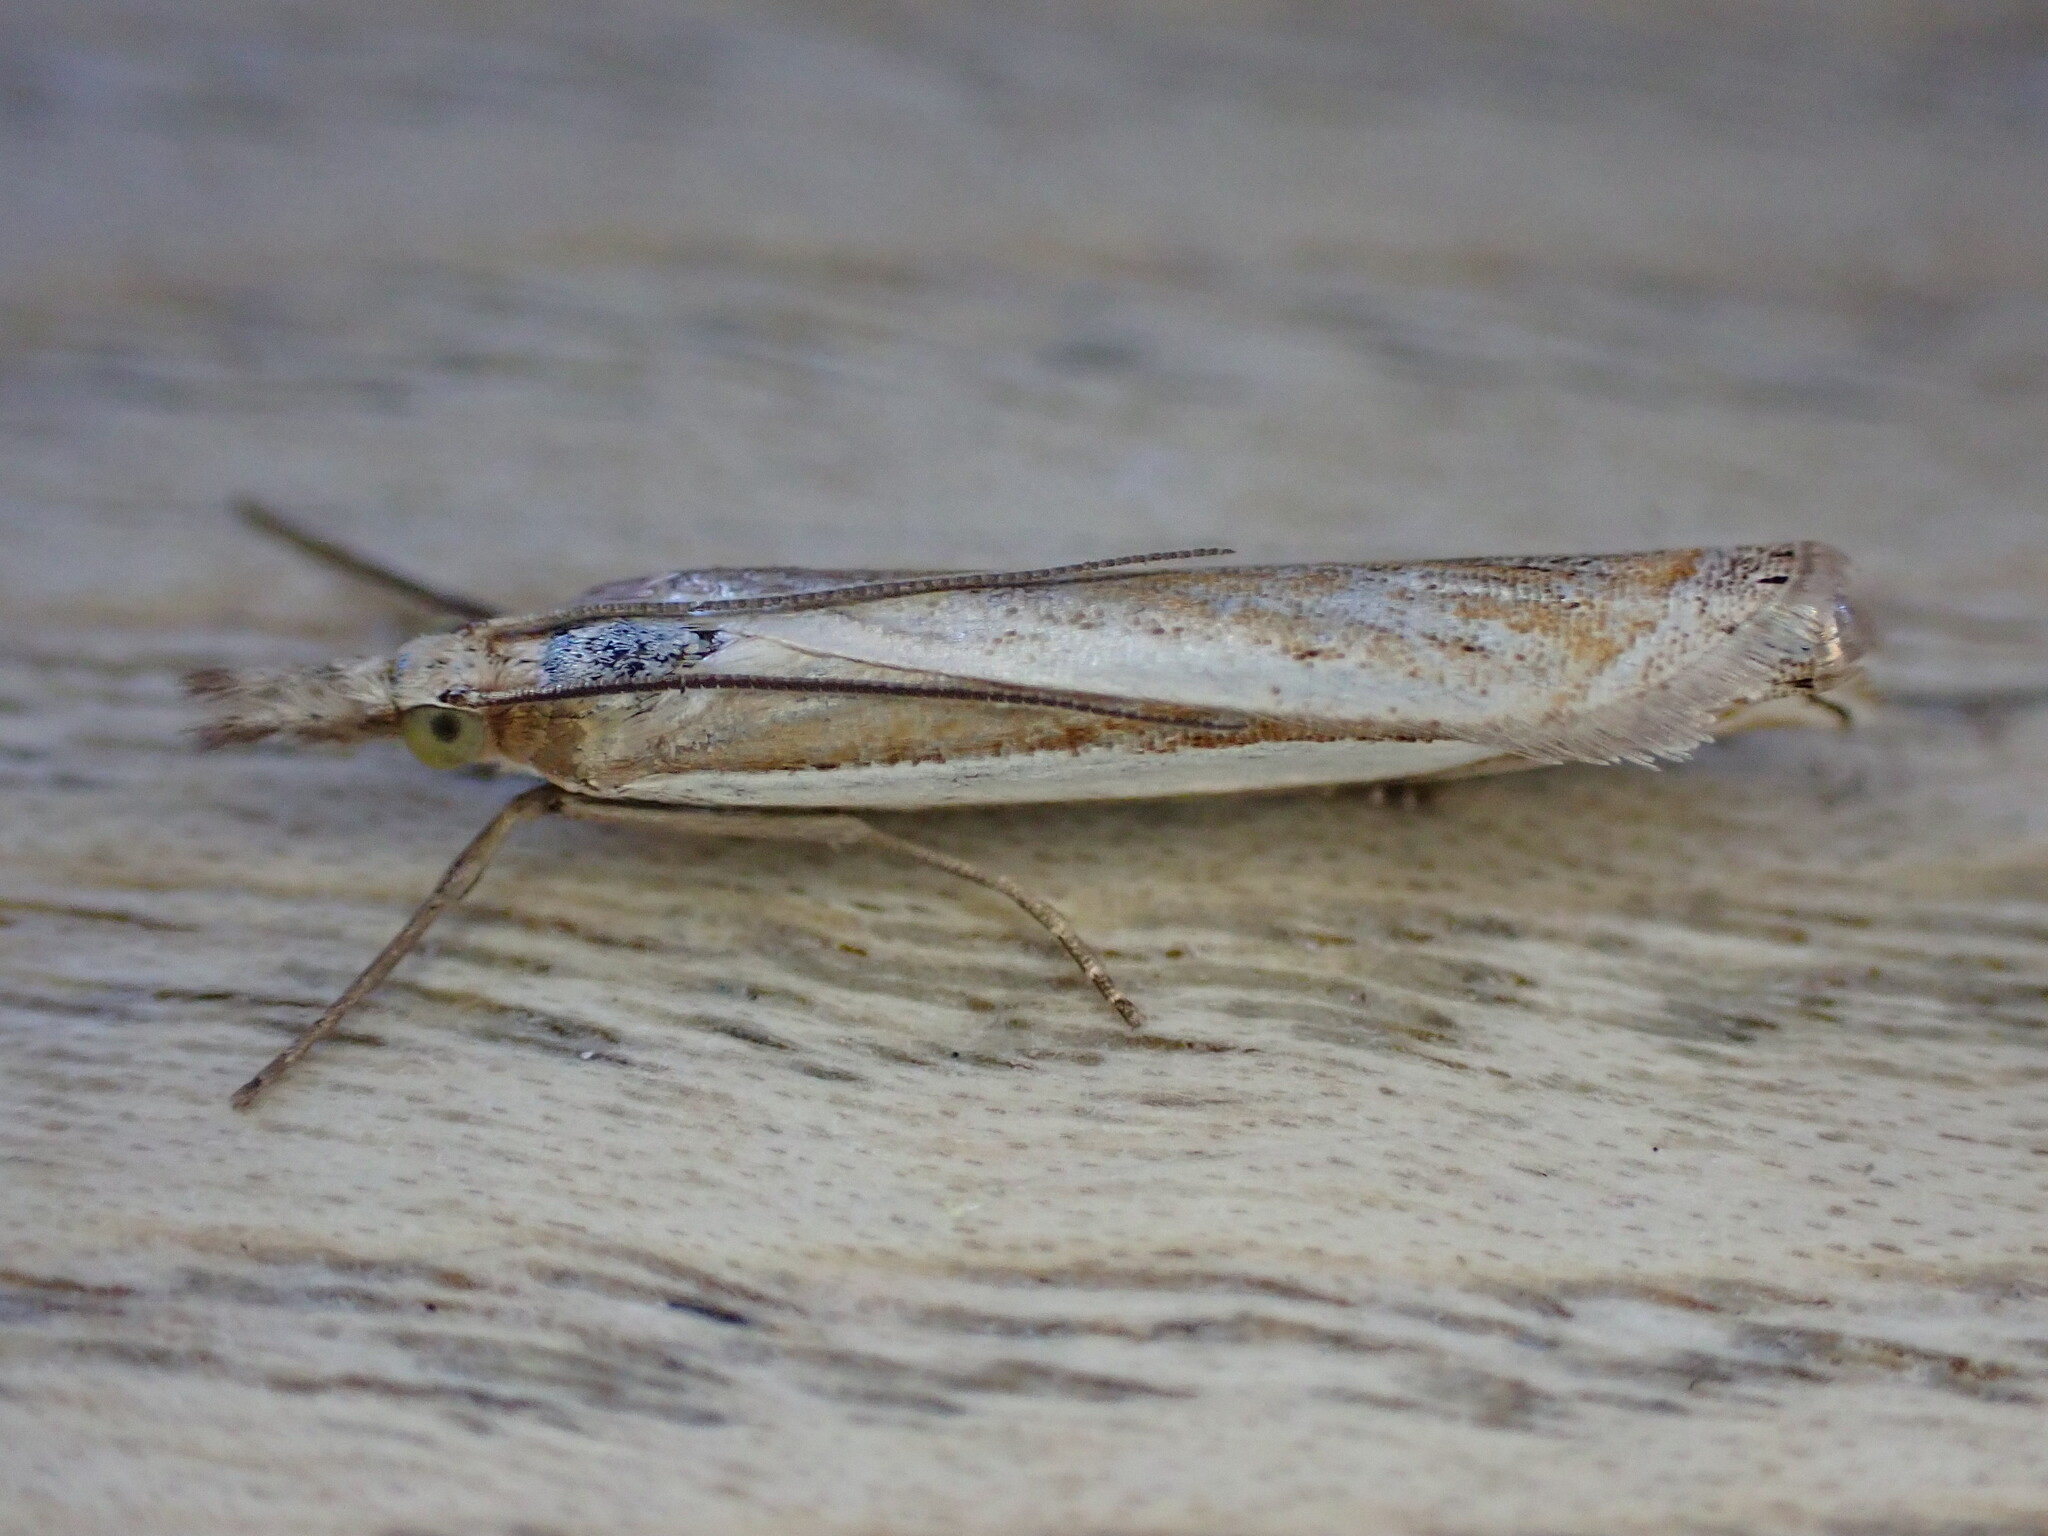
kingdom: Animalia
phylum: Arthropoda
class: Insecta
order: Lepidoptera
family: Crambidae
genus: Crambus
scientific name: Crambus pascuella
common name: Inlaid grass-veneer
